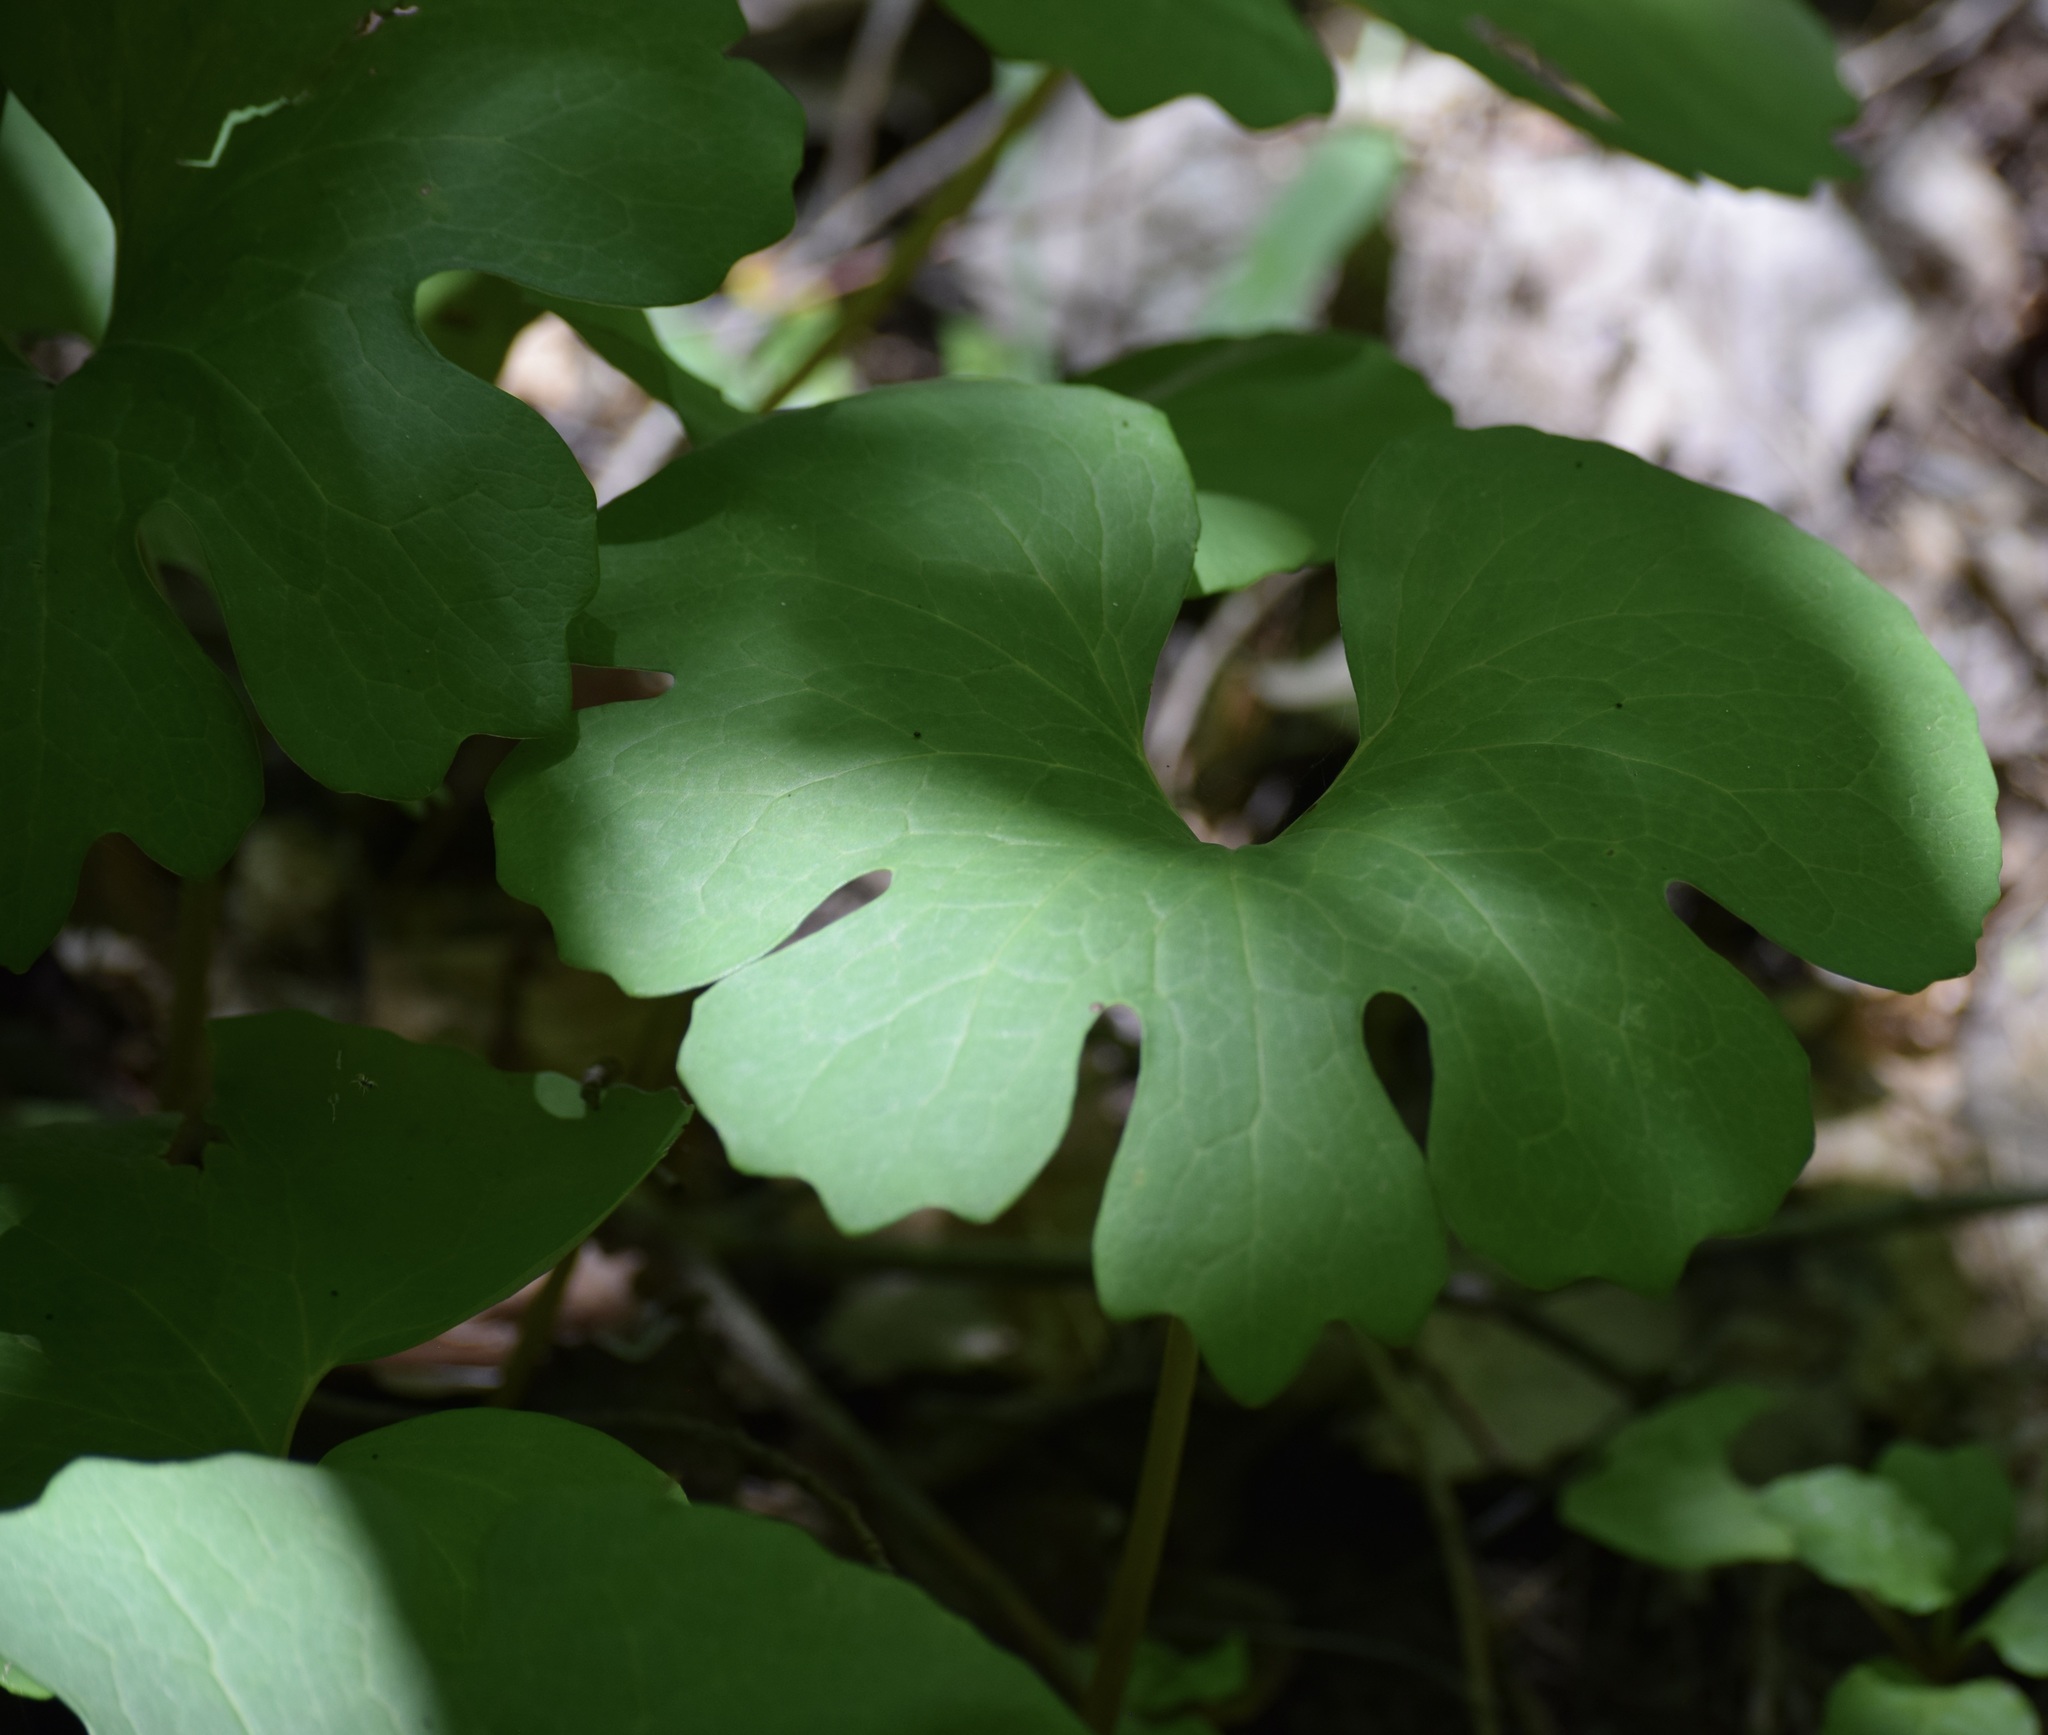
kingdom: Plantae
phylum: Tracheophyta
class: Magnoliopsida
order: Ranunculales
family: Papaveraceae
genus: Sanguinaria
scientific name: Sanguinaria canadensis
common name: Bloodroot
